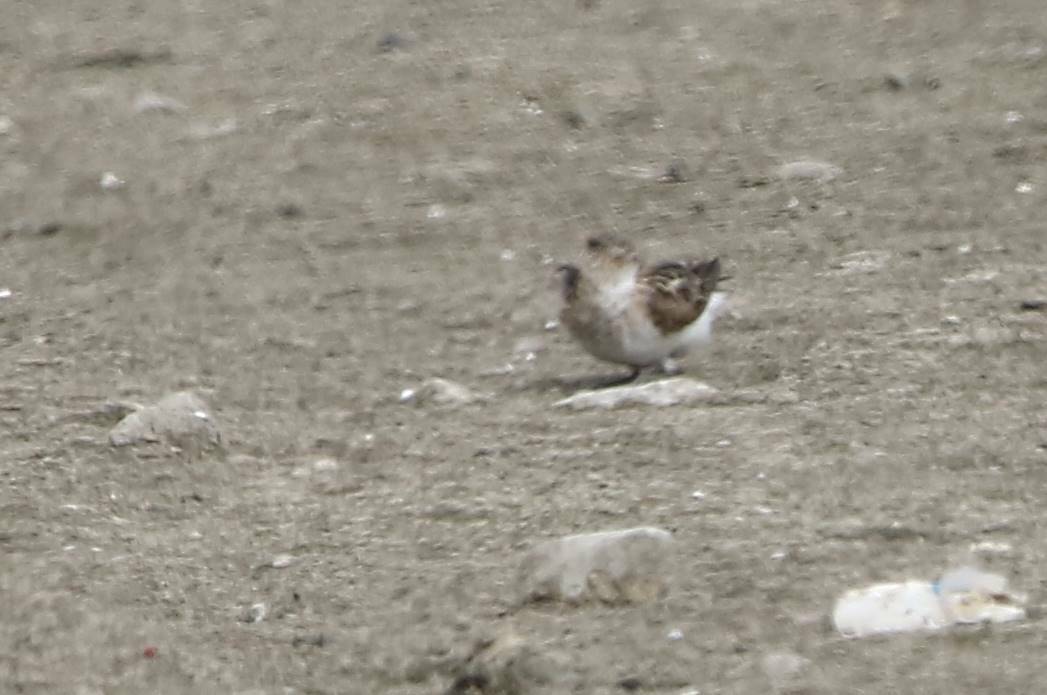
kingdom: Animalia
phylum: Chordata
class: Aves
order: Charadriiformes
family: Scolopacidae
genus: Calidris
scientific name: Calidris minuta
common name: Little stint
